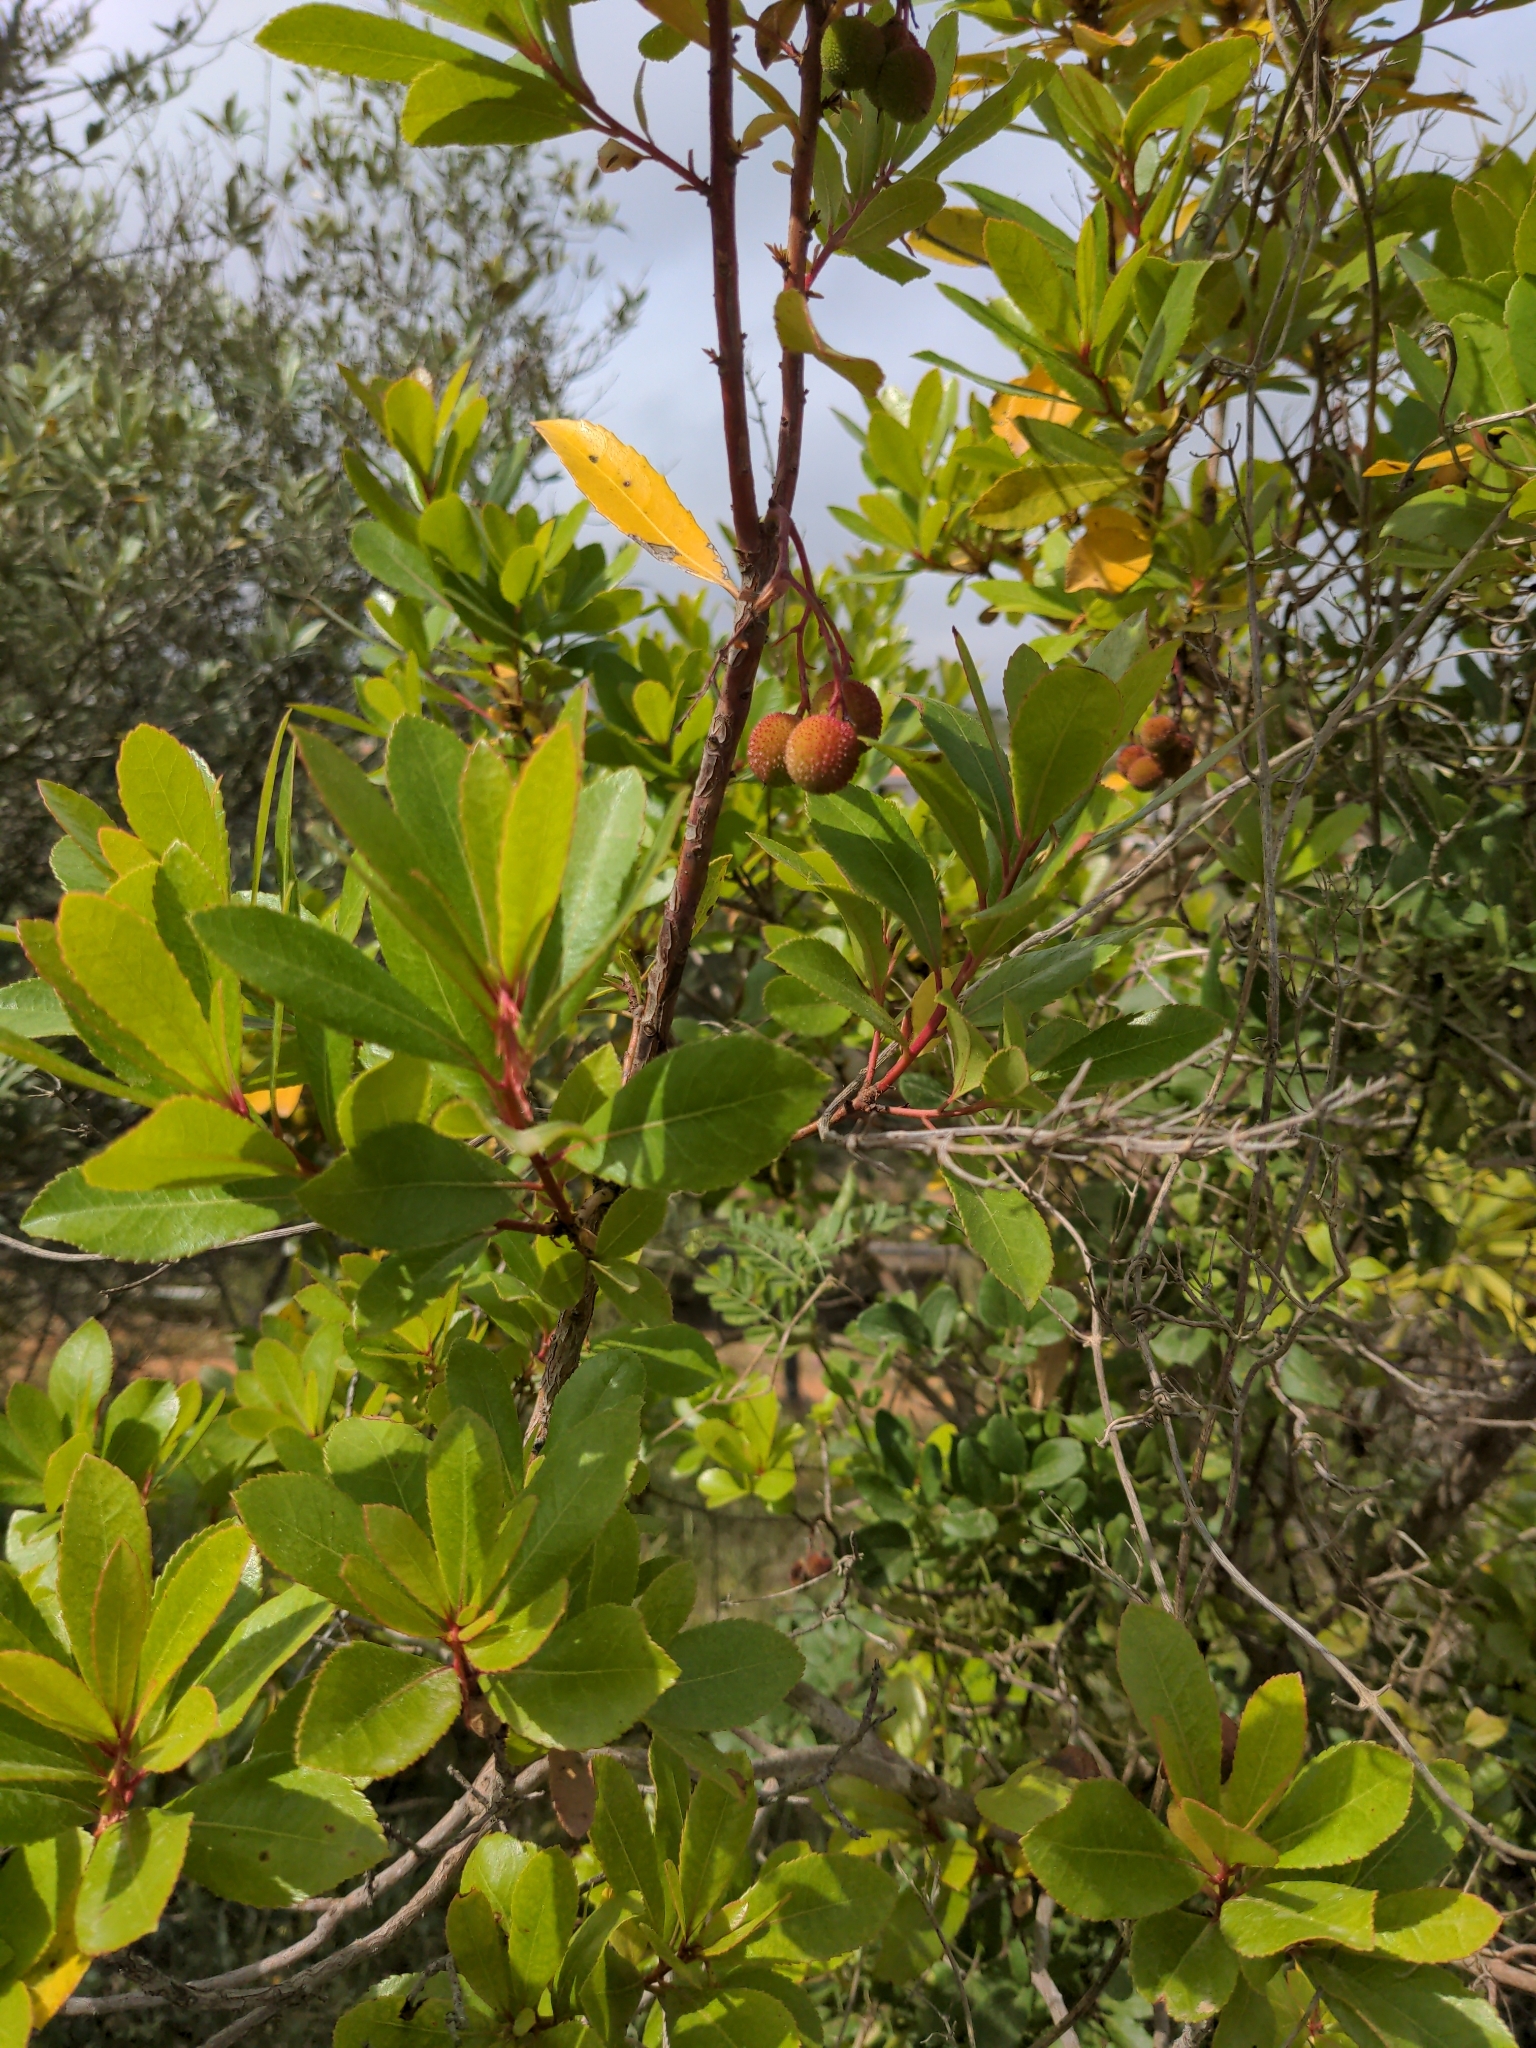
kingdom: Plantae
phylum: Tracheophyta
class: Magnoliopsida
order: Ericales
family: Ericaceae
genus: Arbutus
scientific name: Arbutus unedo
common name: Strawberry-tree
